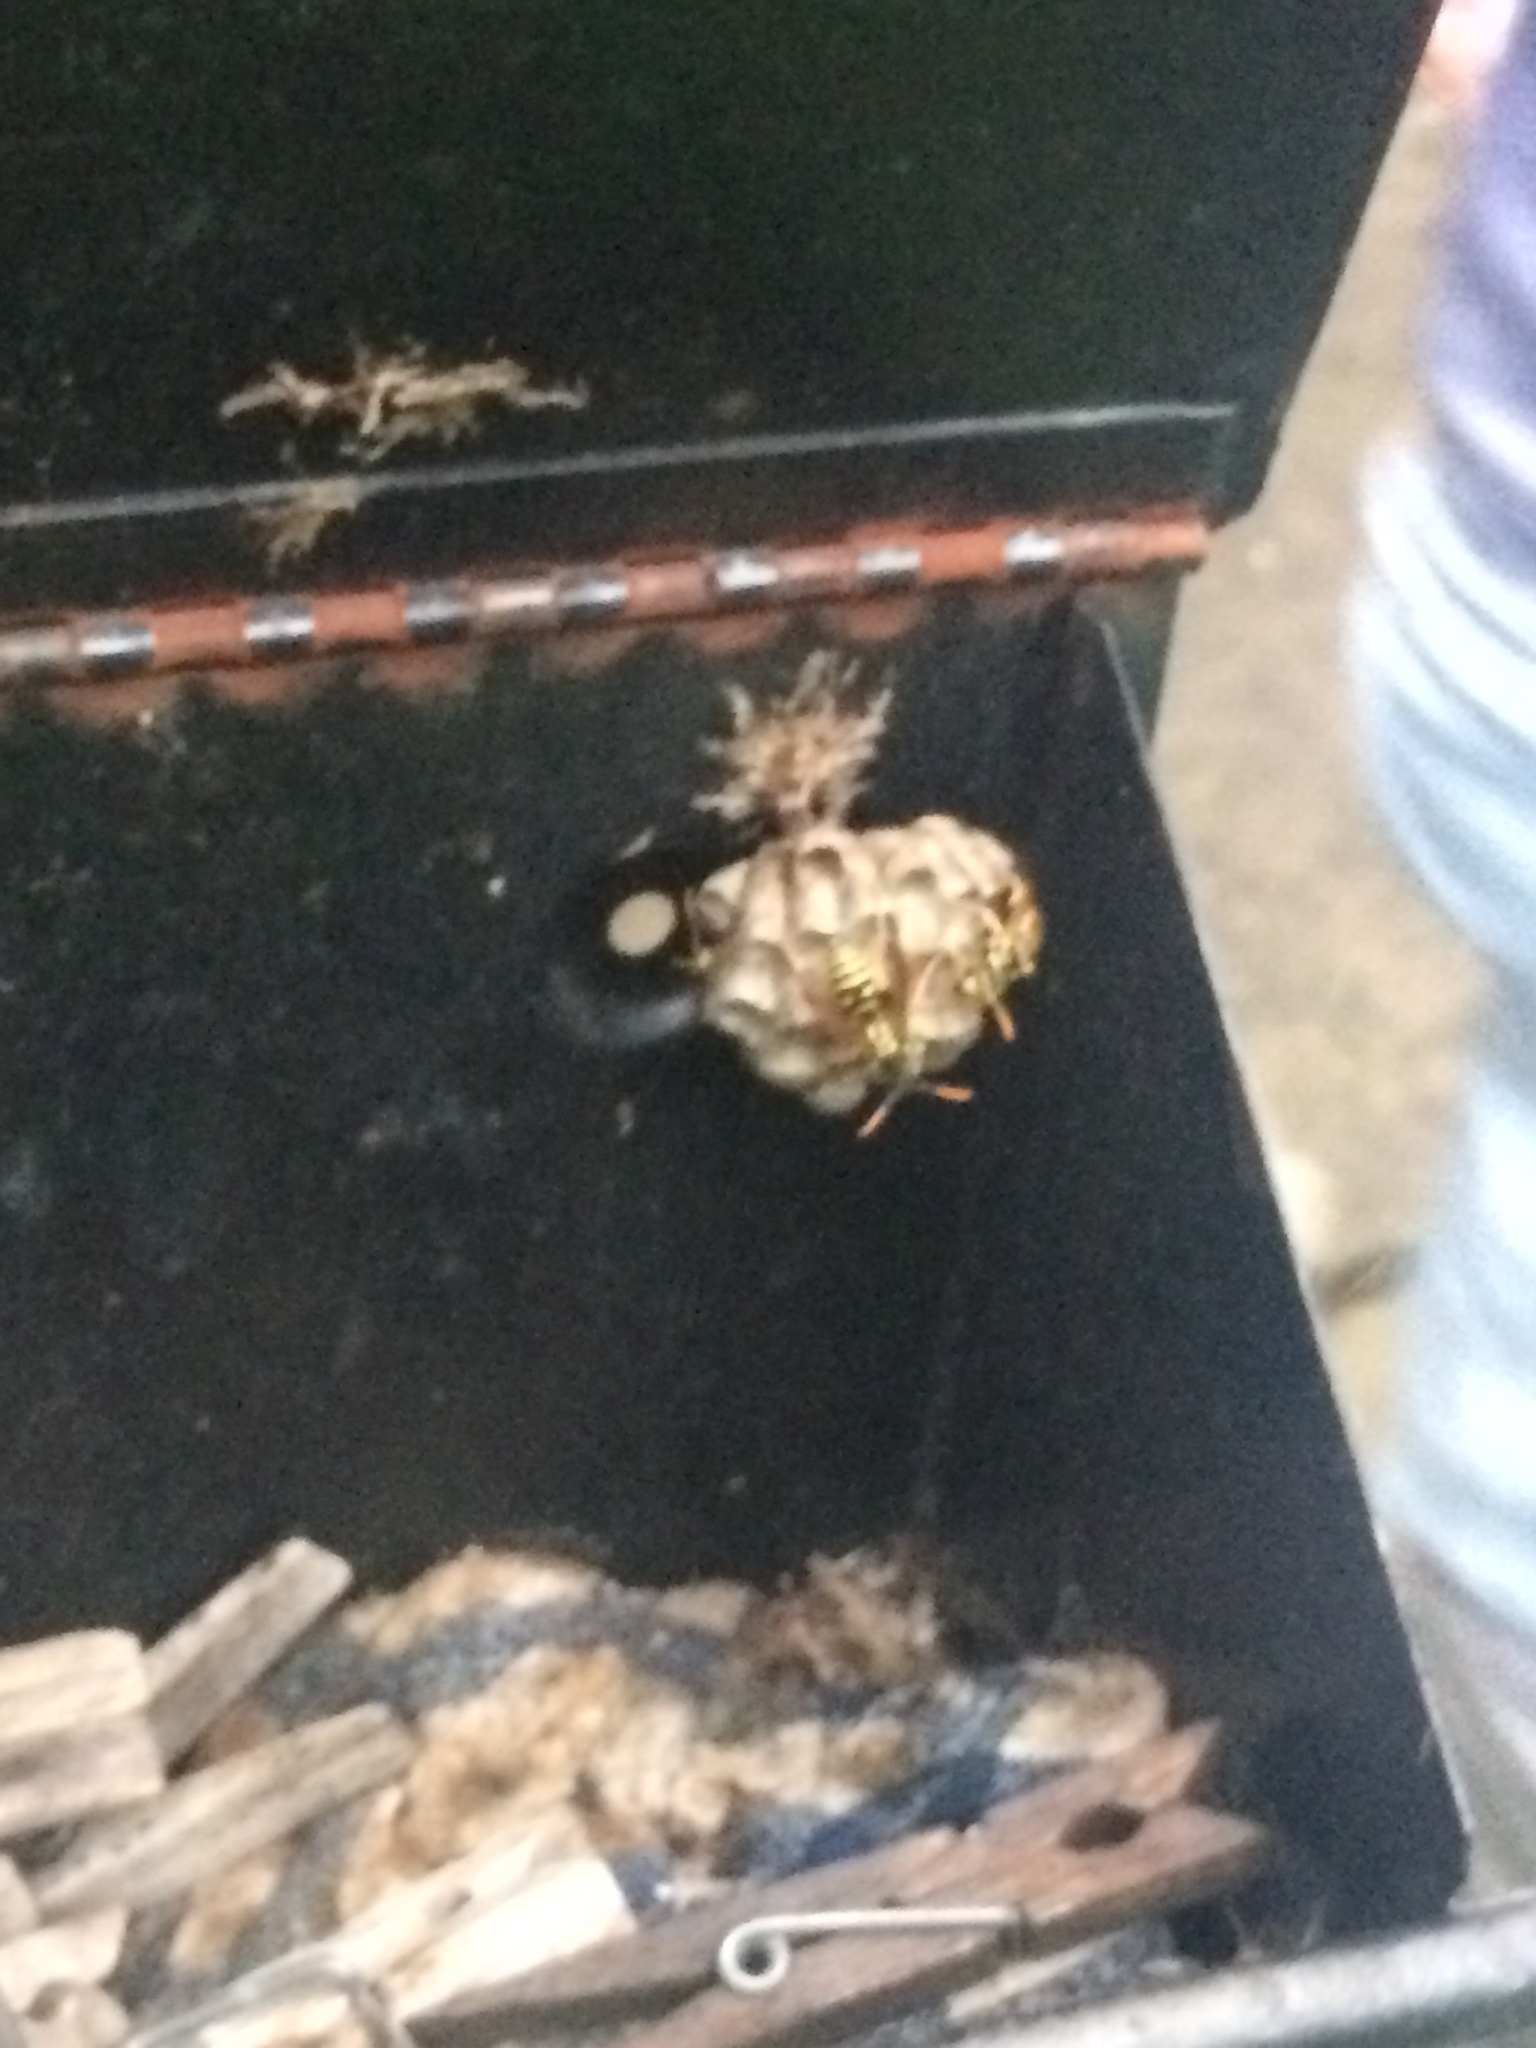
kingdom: Animalia
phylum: Arthropoda
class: Insecta
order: Hymenoptera
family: Eumenidae
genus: Polistes
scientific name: Polistes dominula
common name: Paper wasp
